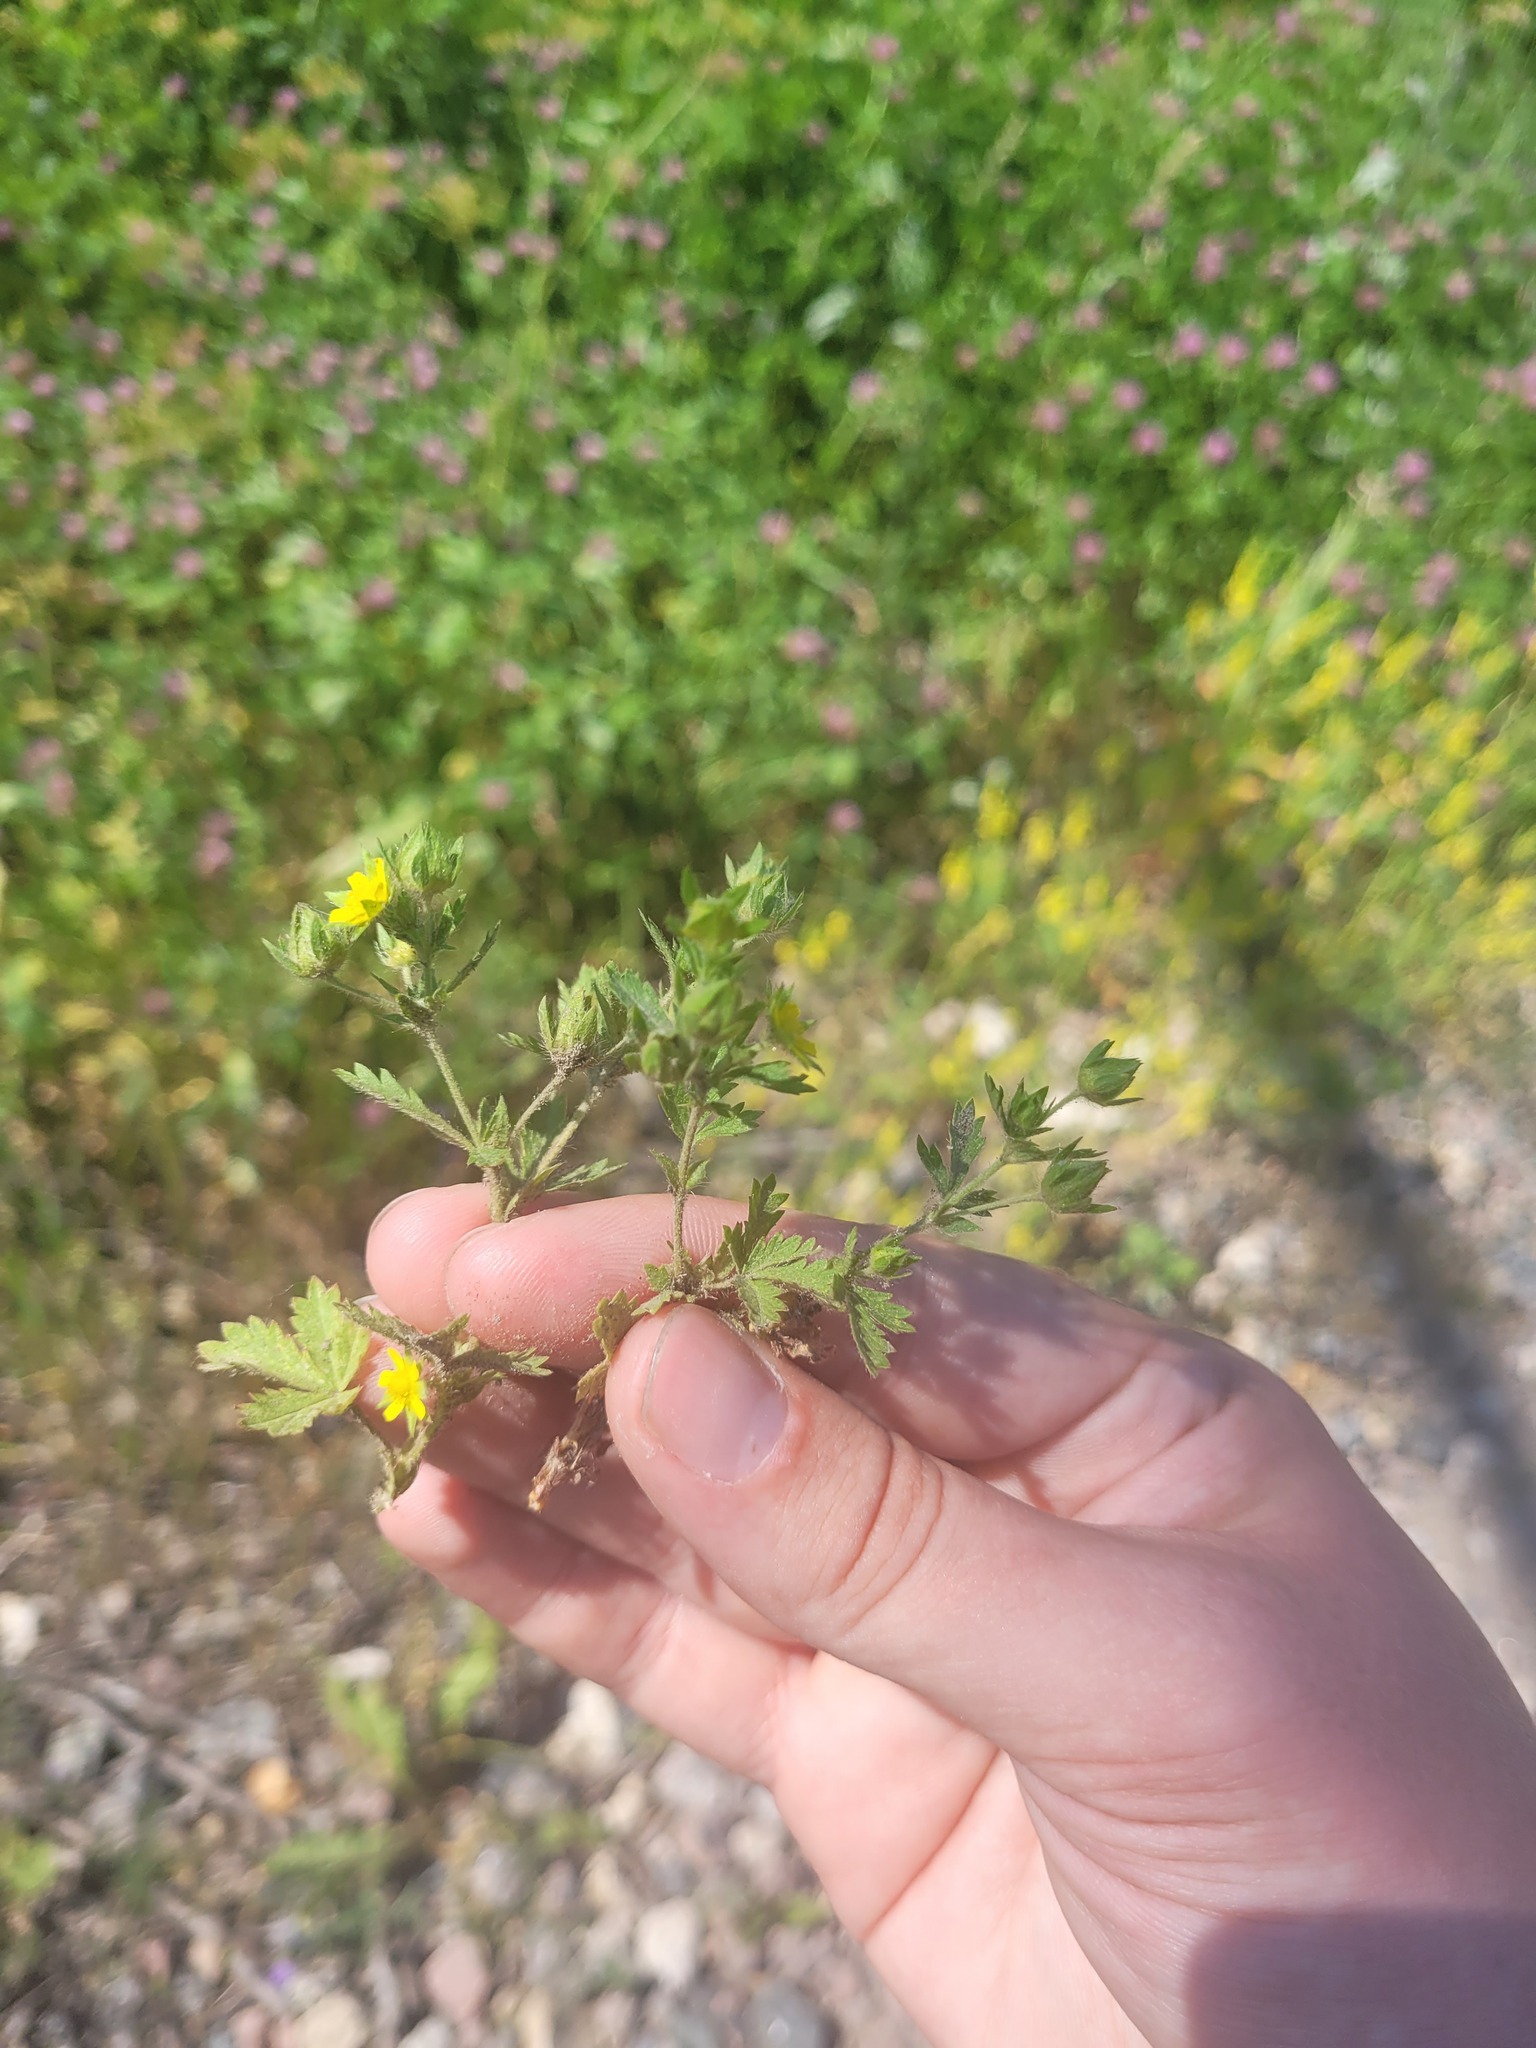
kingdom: Plantae
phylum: Tracheophyta
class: Magnoliopsida
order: Rosales
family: Rosaceae
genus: Potentilla
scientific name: Potentilla intermedia
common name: Downy cinquefoil
